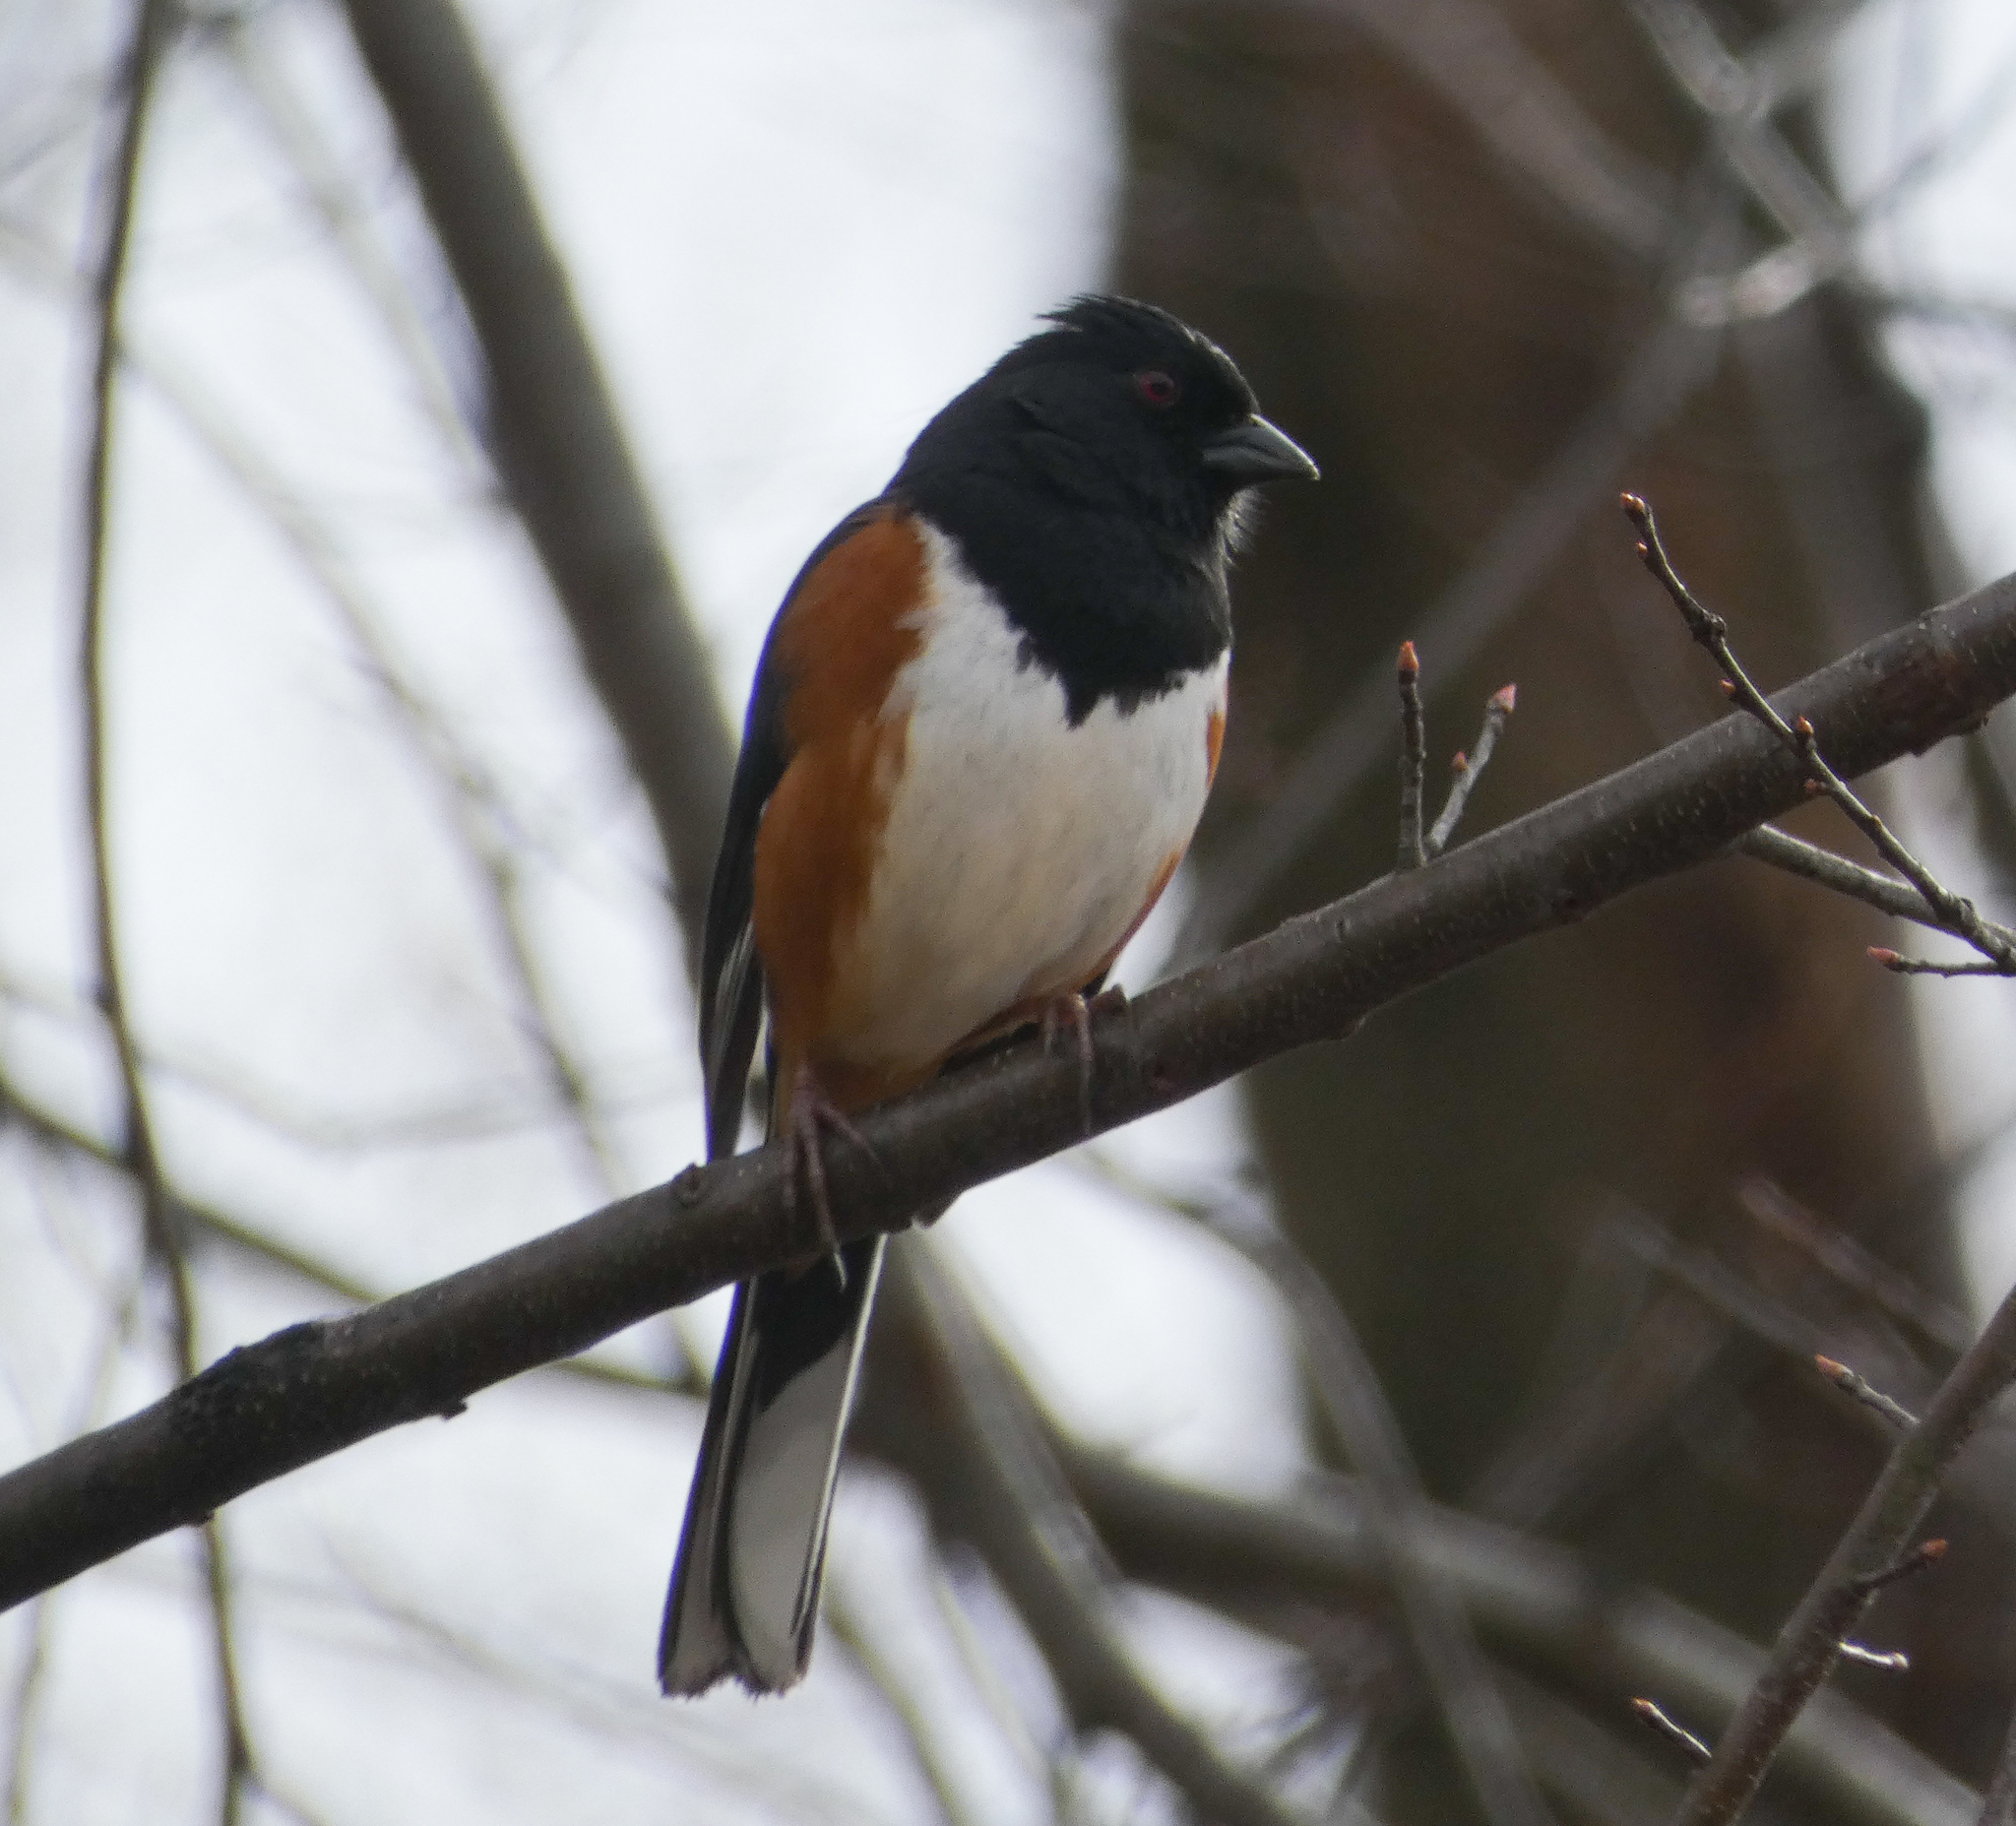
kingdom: Animalia
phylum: Chordata
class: Aves
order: Passeriformes
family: Passerellidae
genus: Pipilo
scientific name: Pipilo erythrophthalmus
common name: Eastern towhee
